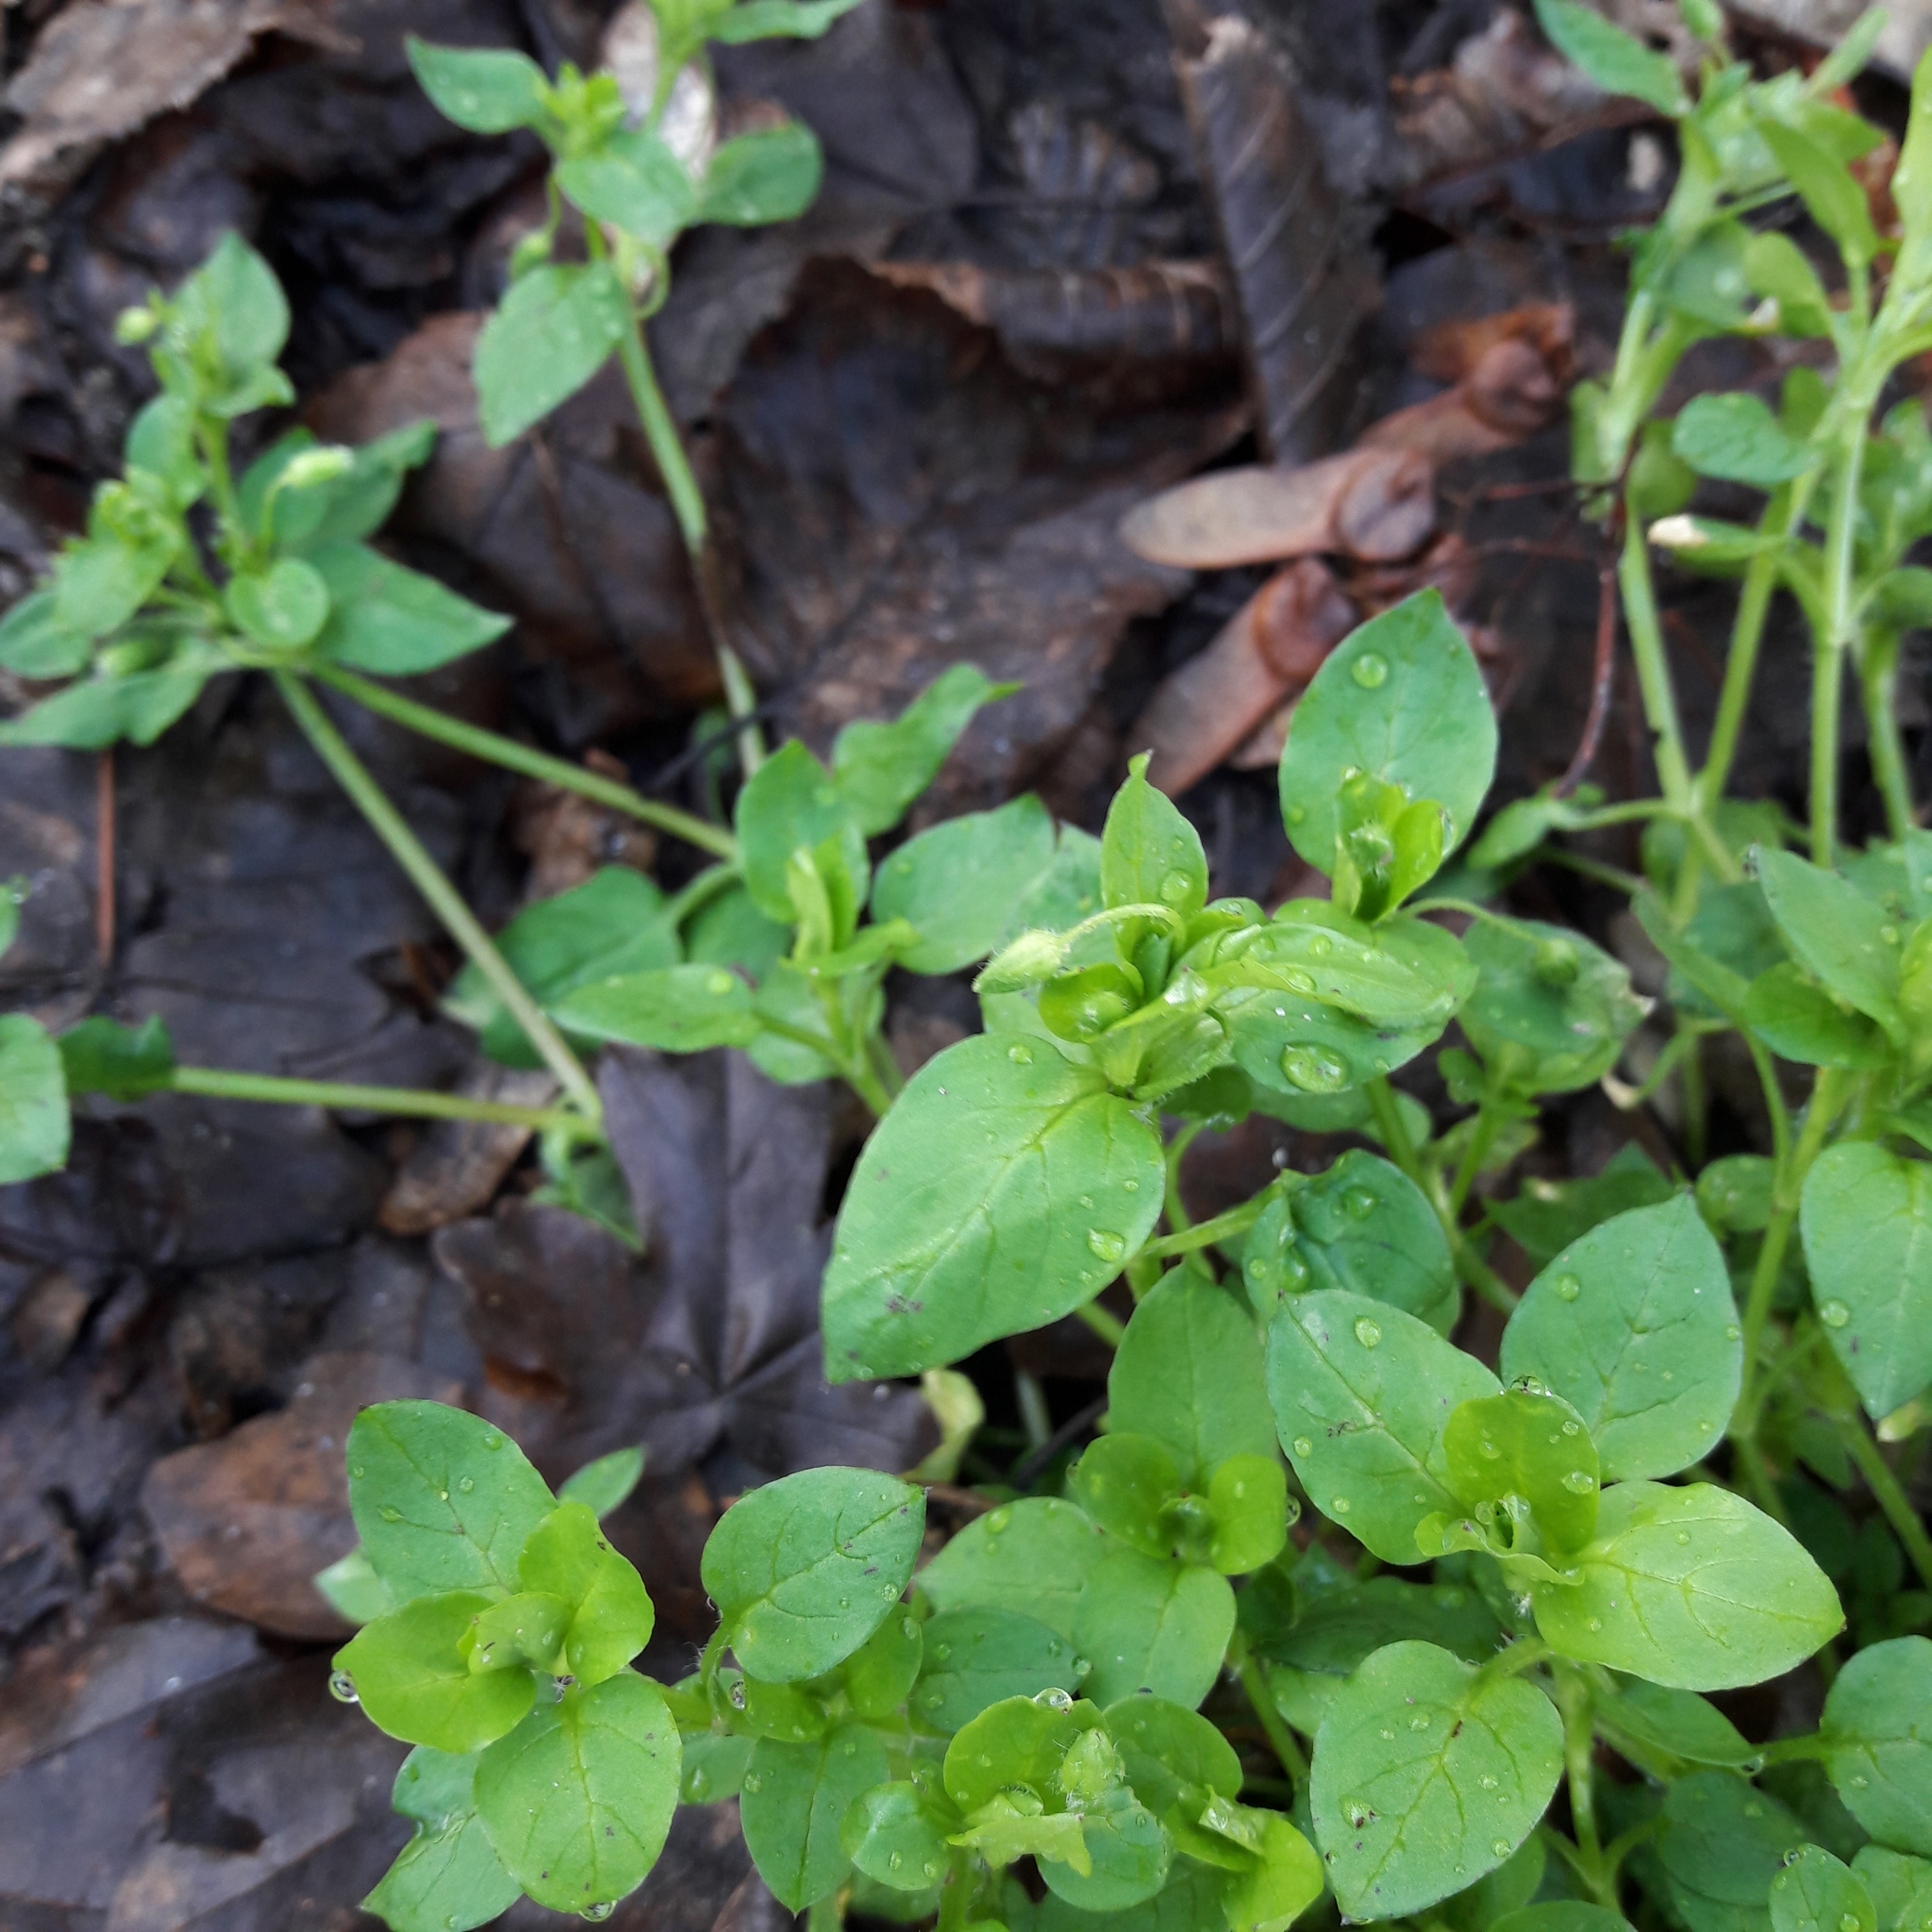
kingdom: Plantae
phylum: Tracheophyta
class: Magnoliopsida
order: Caryophyllales
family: Caryophyllaceae
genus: Stellaria
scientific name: Stellaria media
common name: Common chickweed
